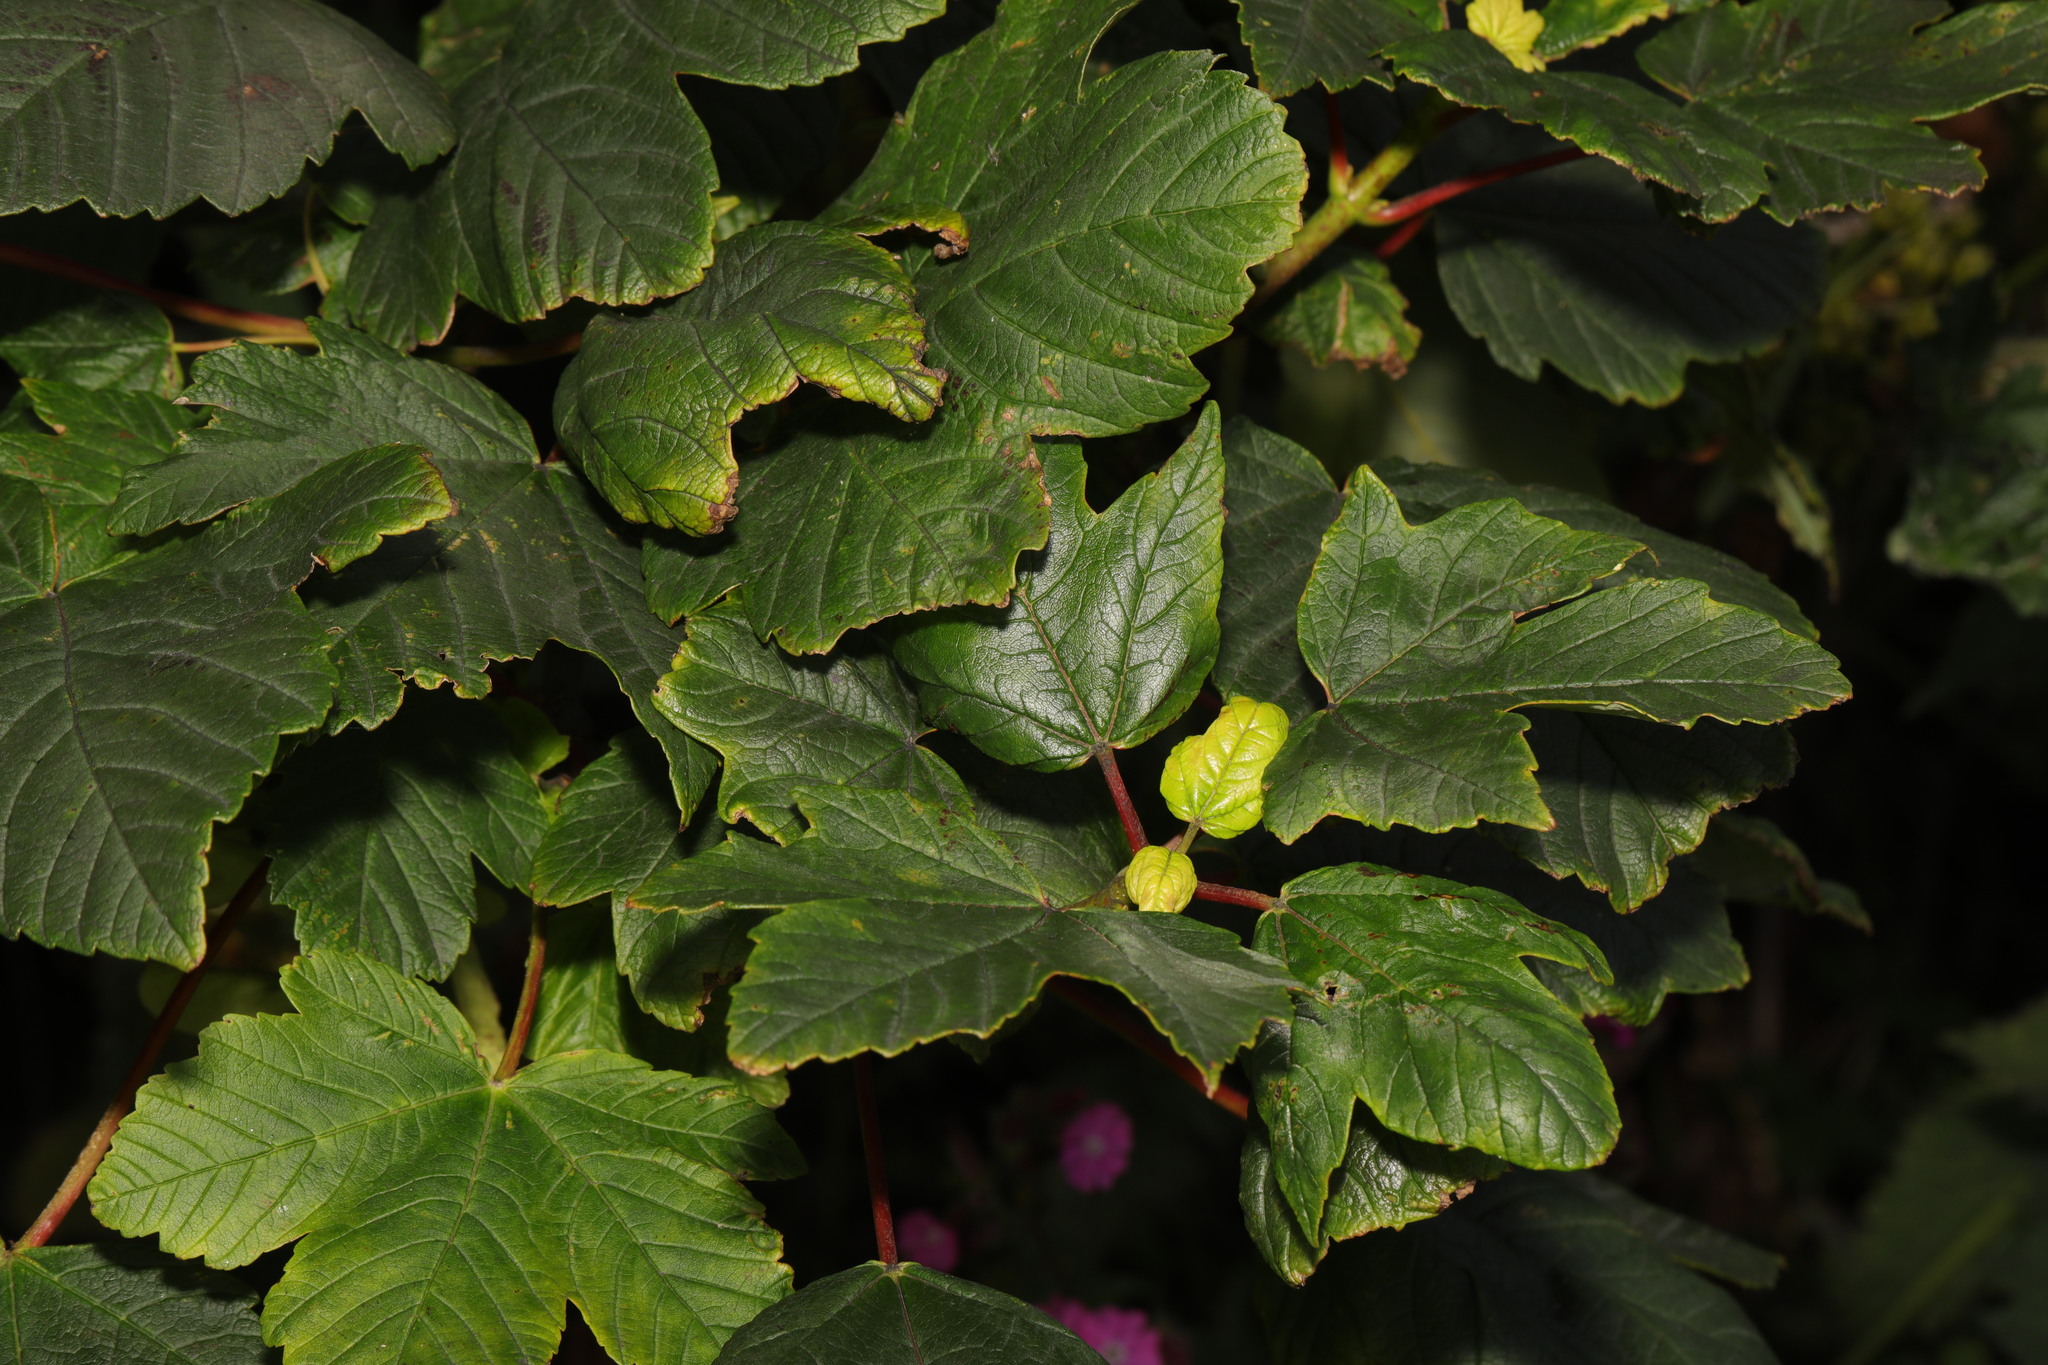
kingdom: Plantae
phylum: Tracheophyta
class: Magnoliopsida
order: Sapindales
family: Sapindaceae
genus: Acer
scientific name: Acer pseudoplatanus
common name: Sycamore
